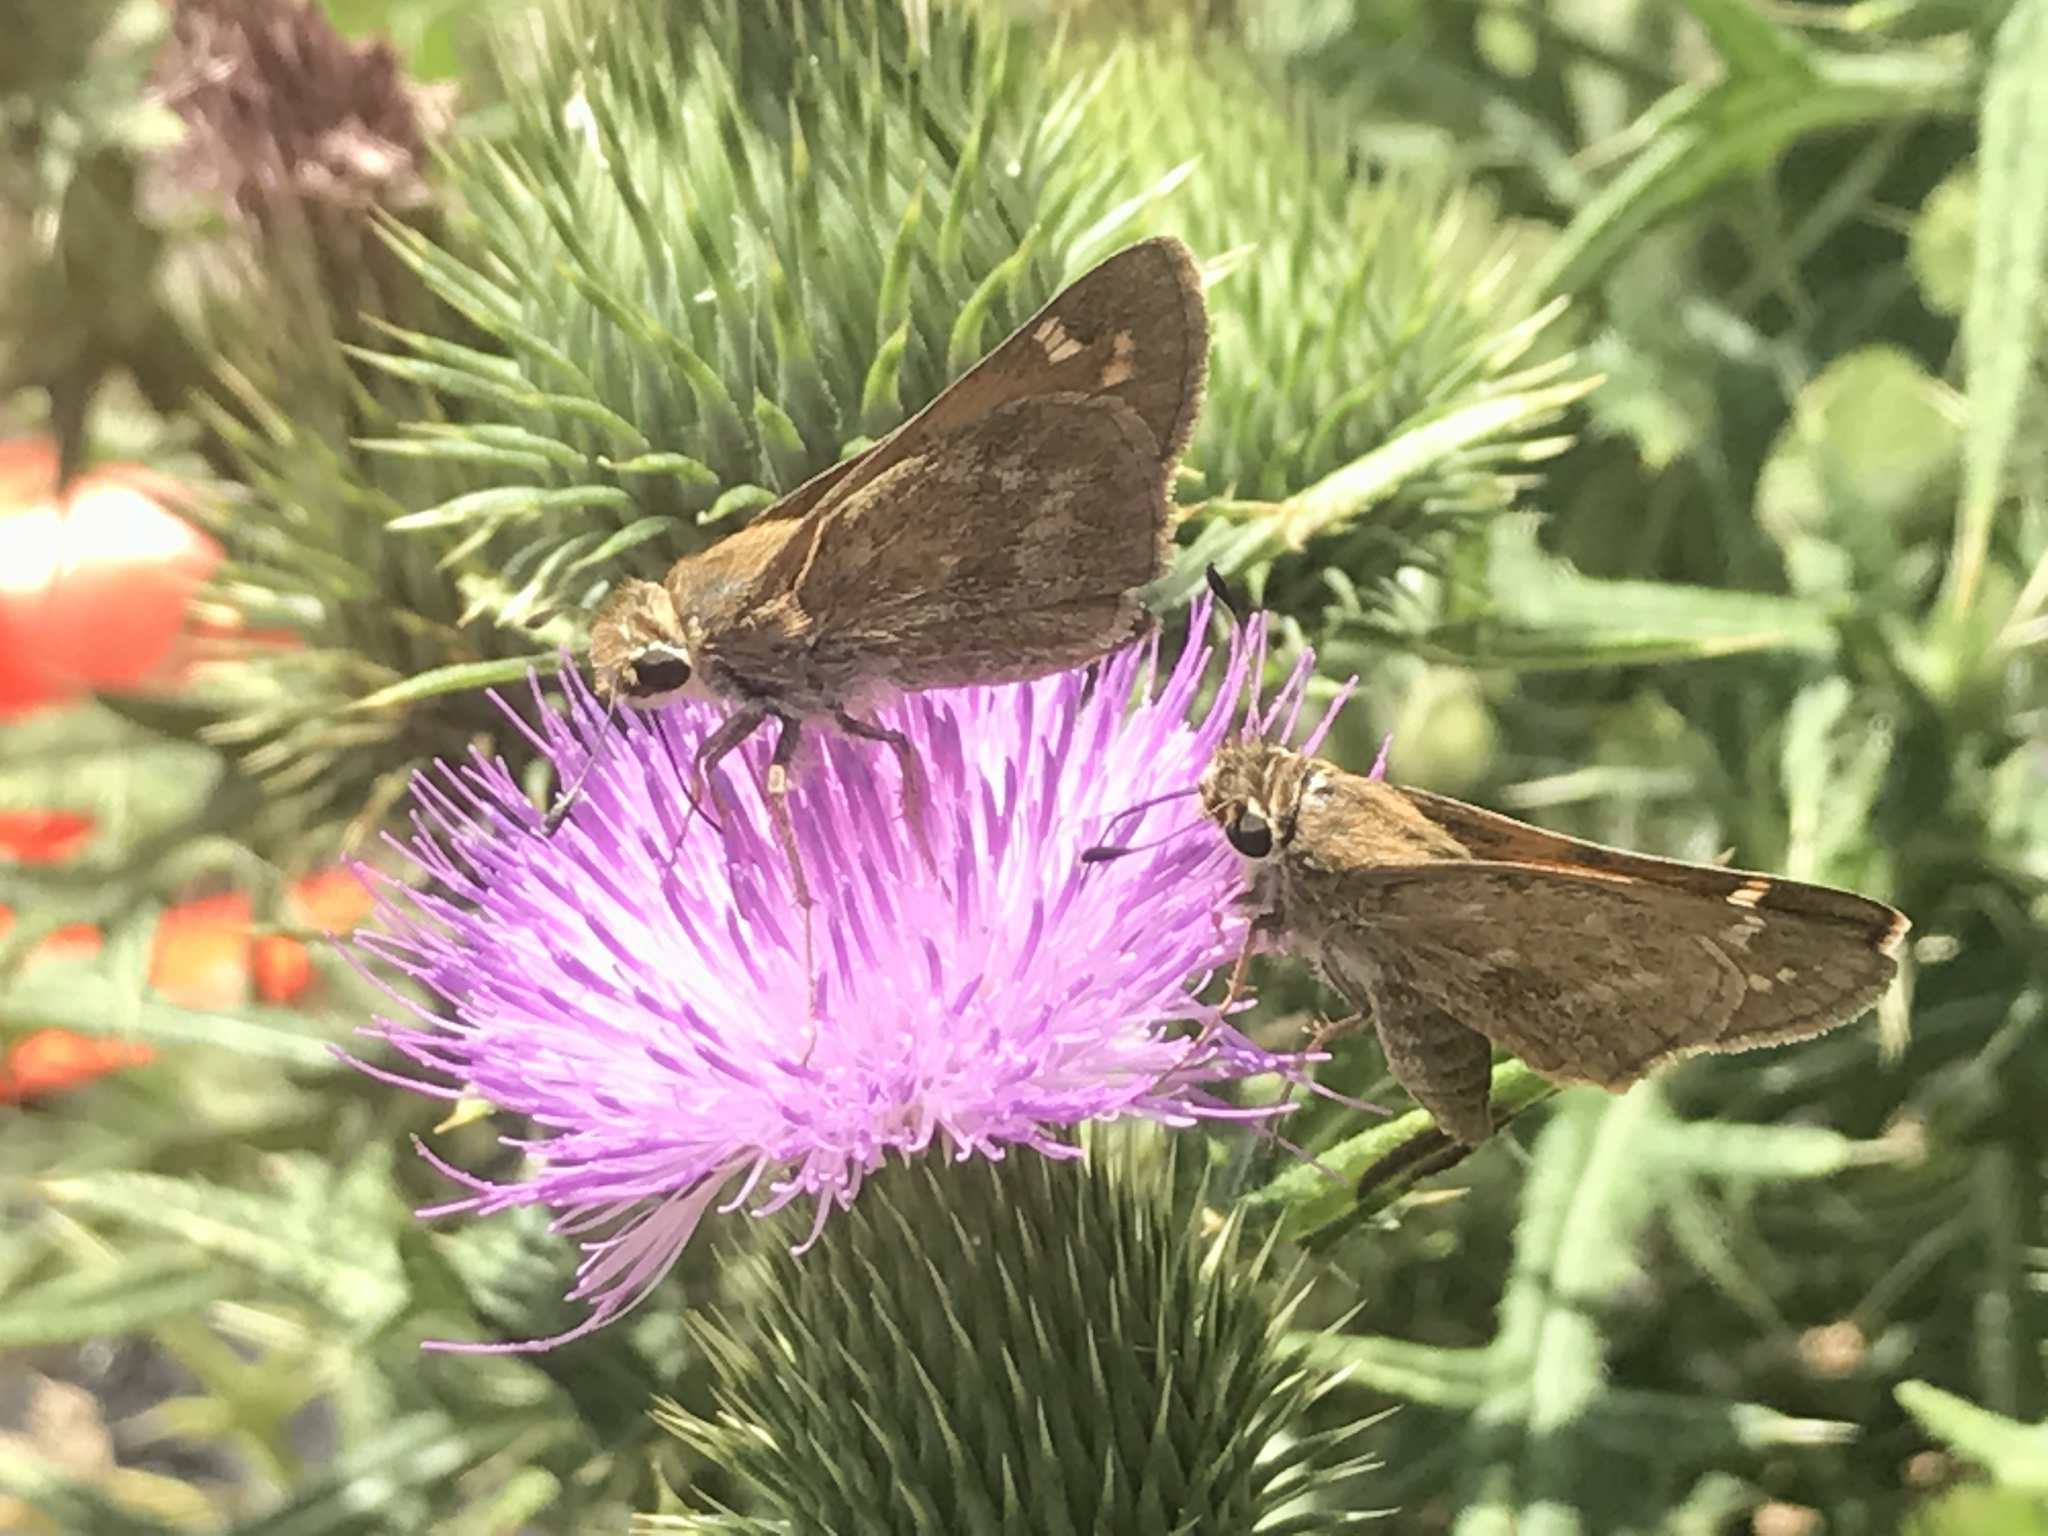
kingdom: Animalia
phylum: Arthropoda
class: Insecta
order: Lepidoptera
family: Hesperiidae
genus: Atalopedes
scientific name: Atalopedes
